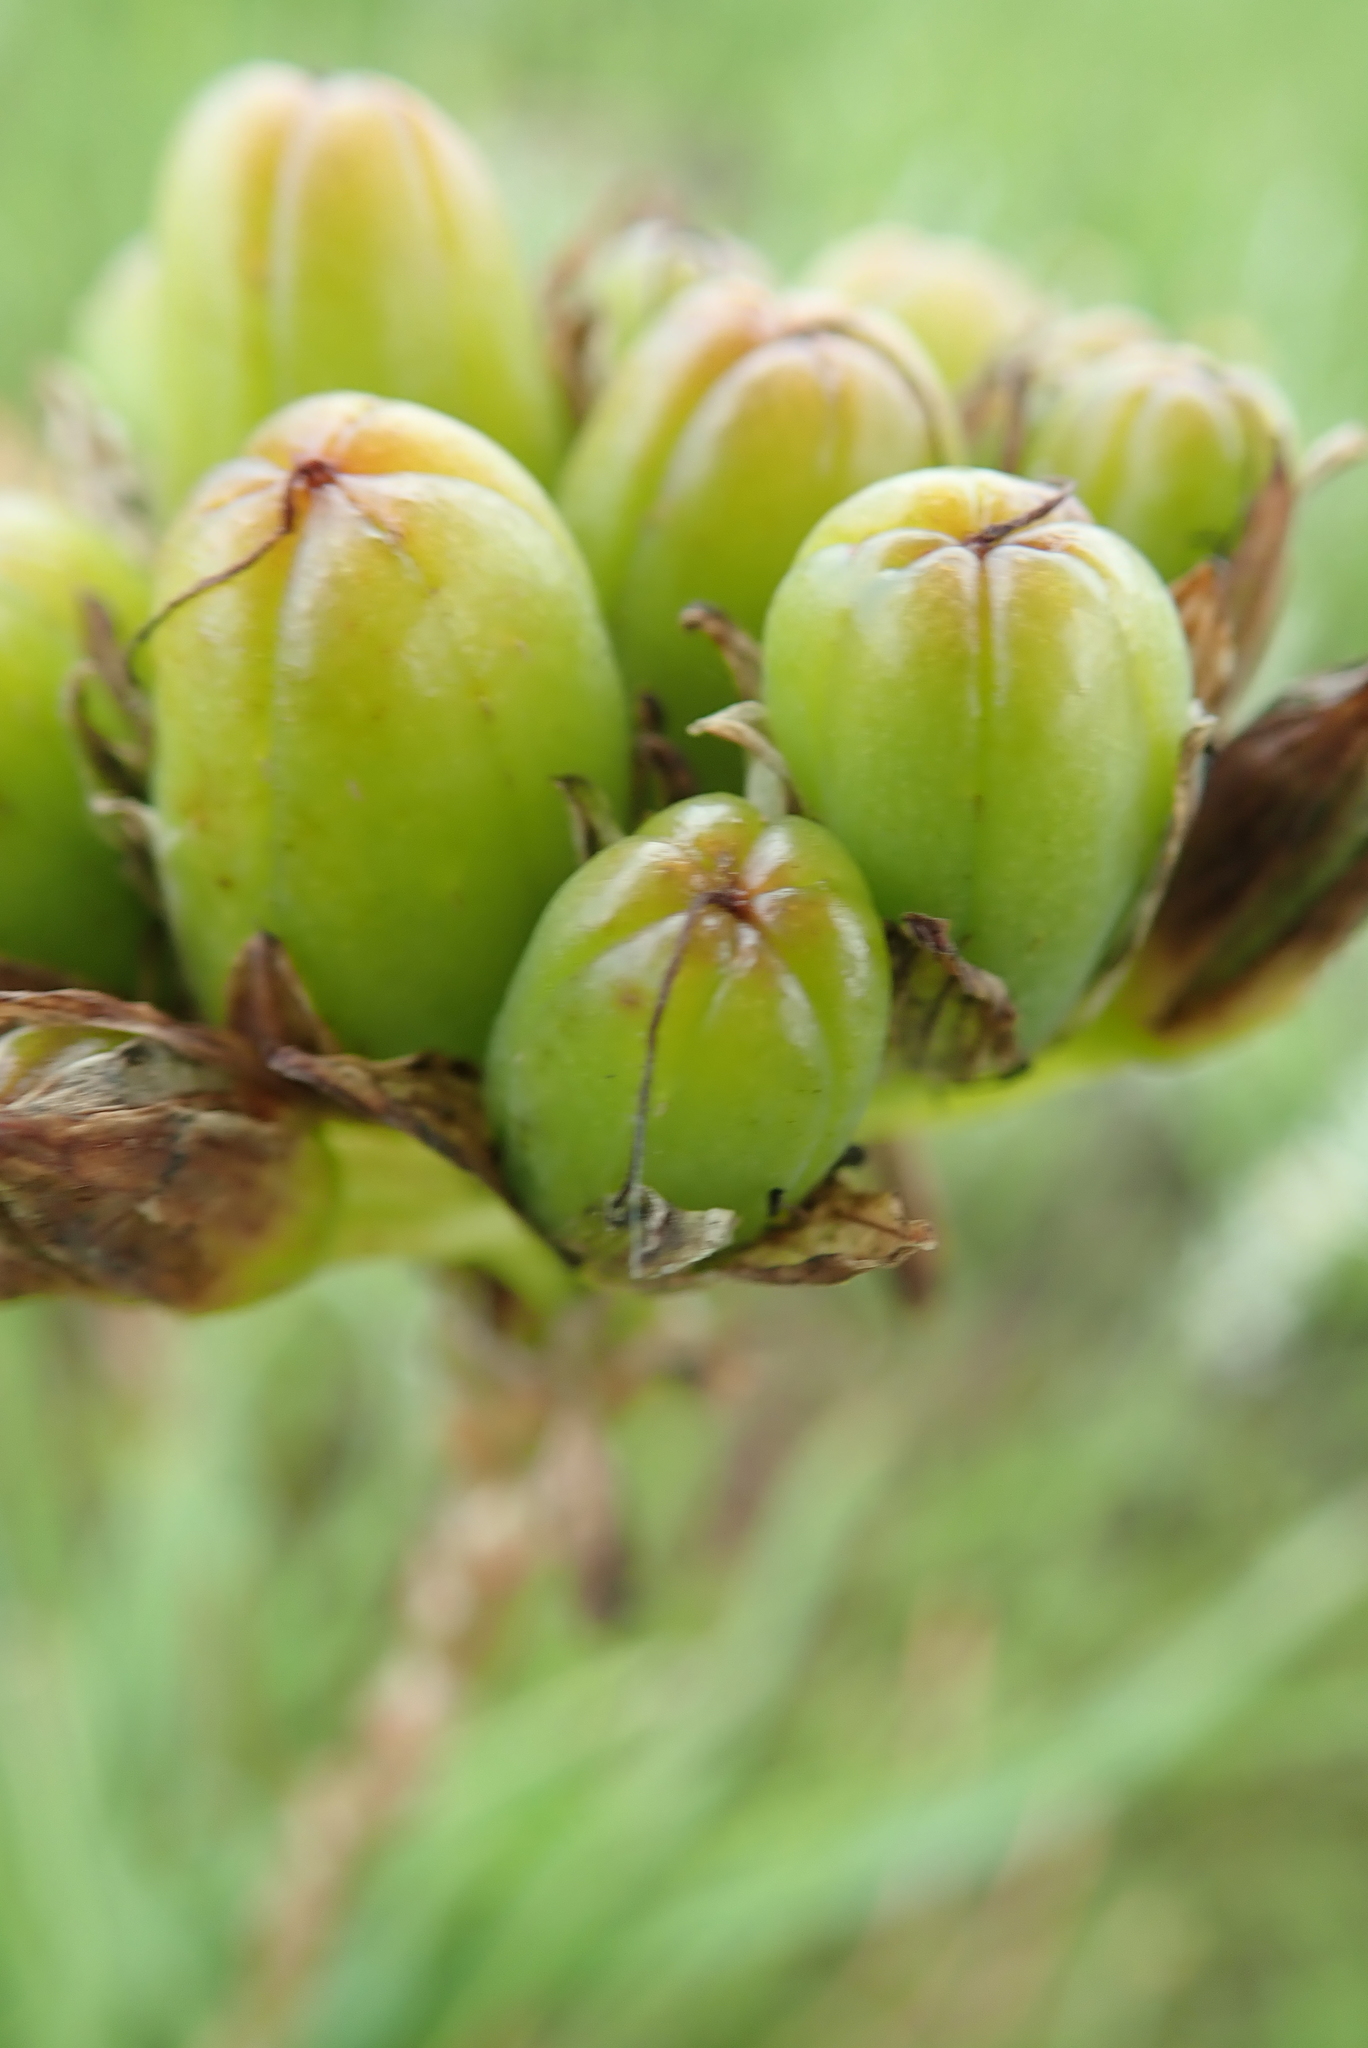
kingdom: Plantae
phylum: Tracheophyta
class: Liliopsida
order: Asparagales
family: Asphodelaceae
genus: Aloe
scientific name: Aloe linearifolia
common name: Dwarf yellow grass aloe
